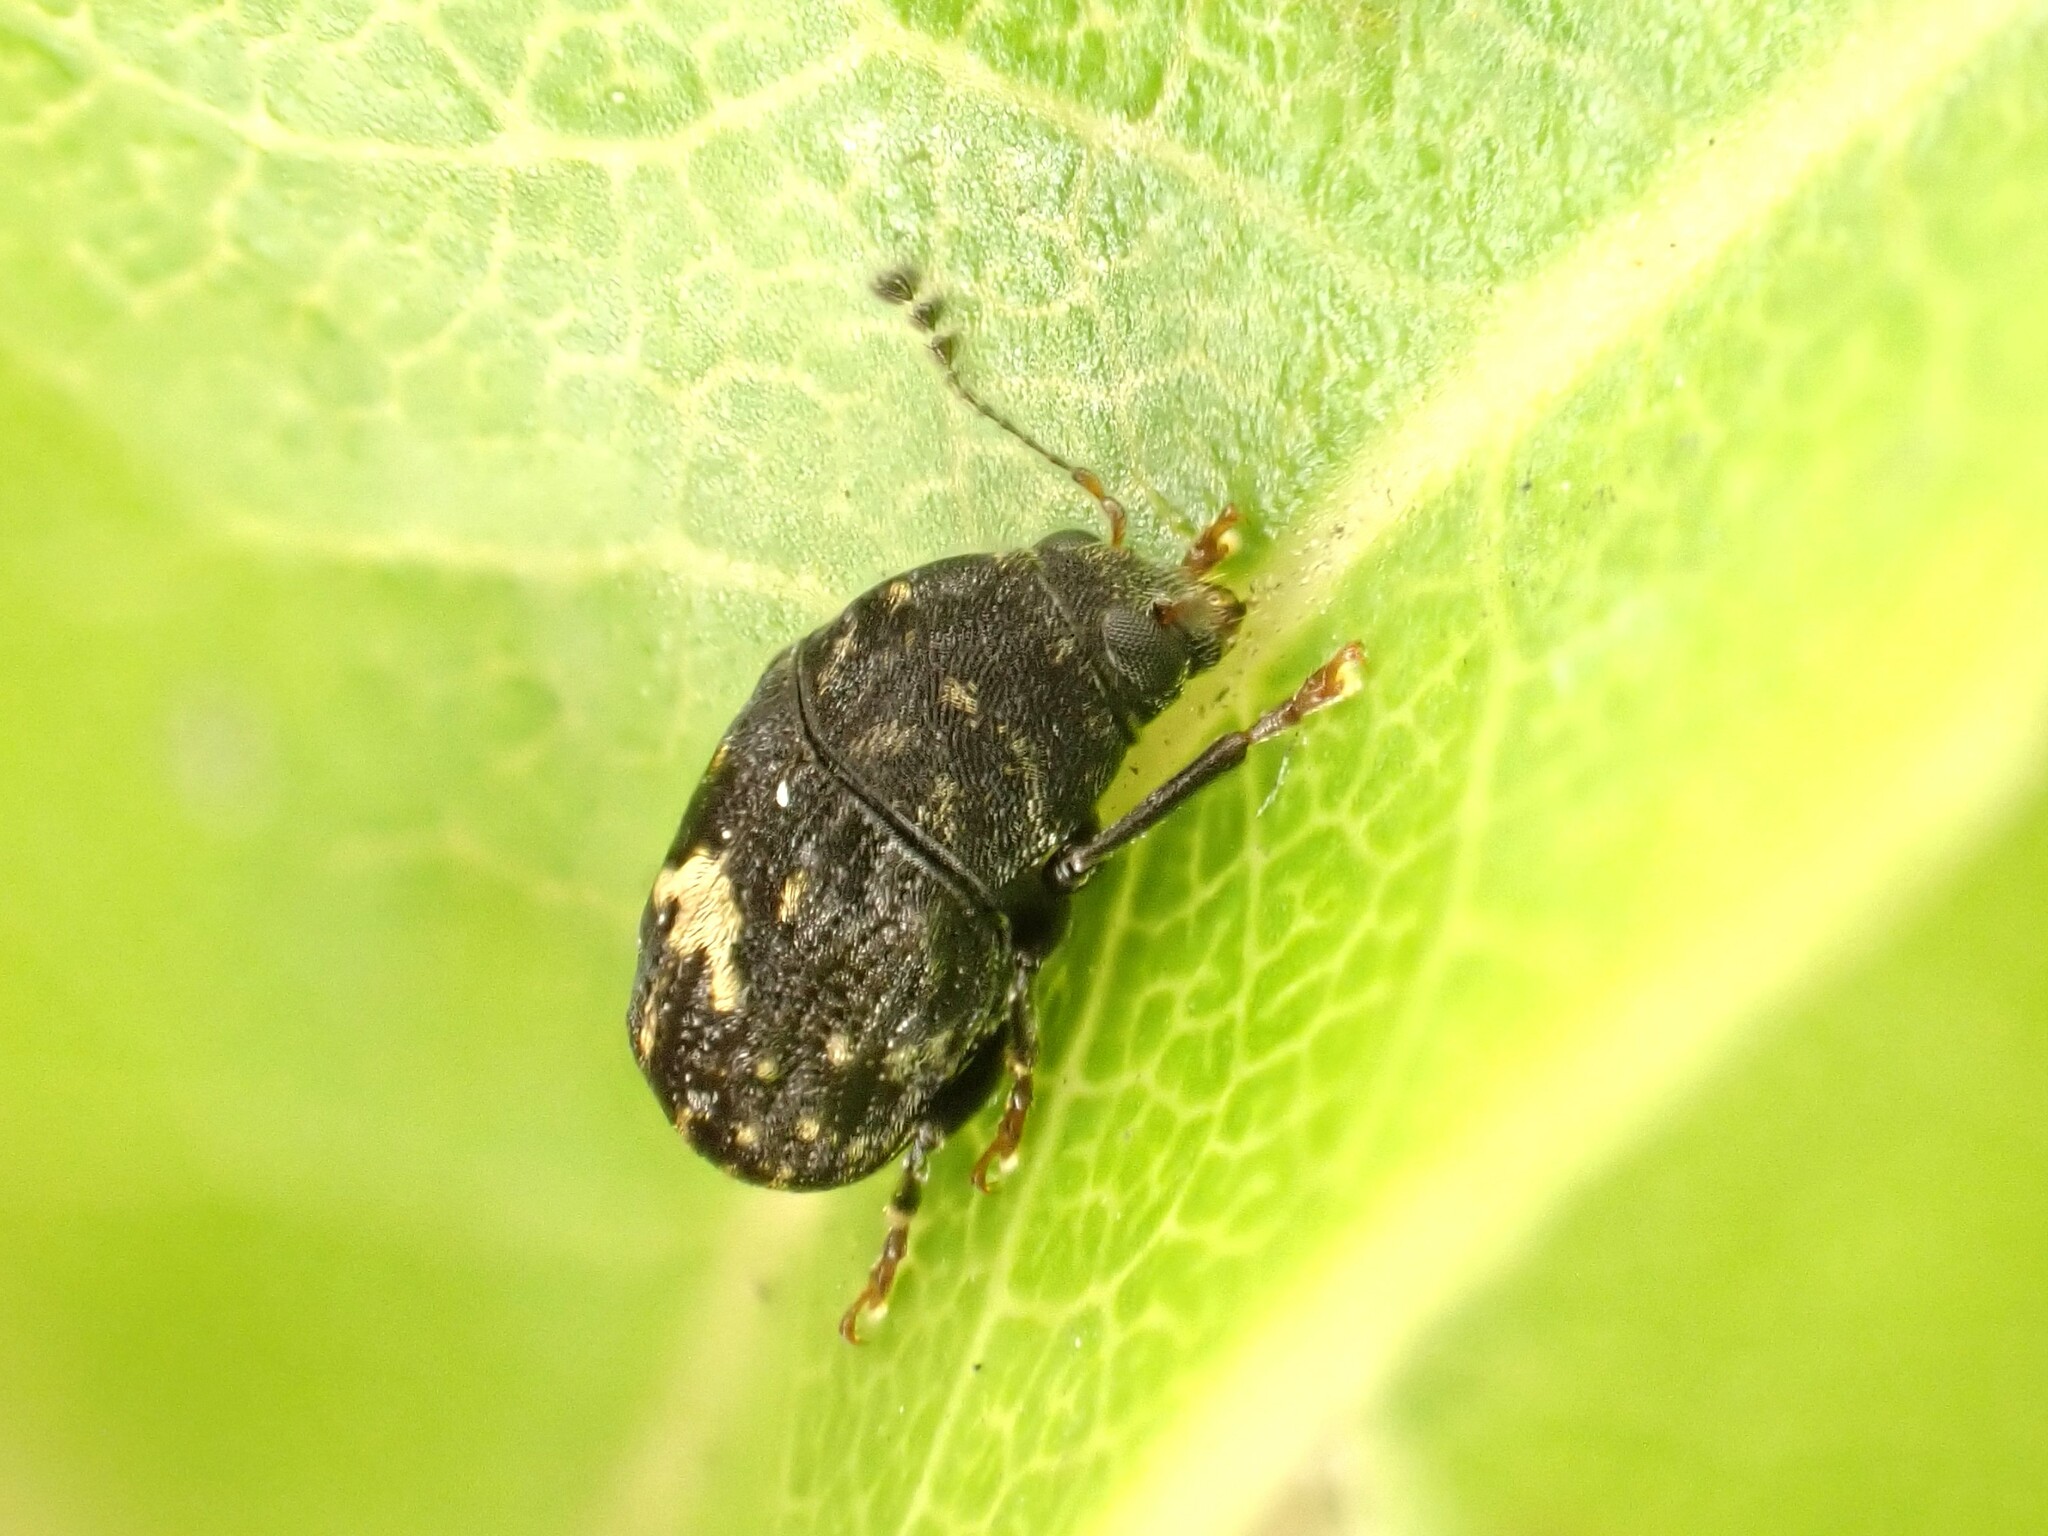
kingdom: Animalia
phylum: Arthropoda
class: Insecta
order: Coleoptera
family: Anthribidae
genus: Notochoragus
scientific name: Notochoragus
